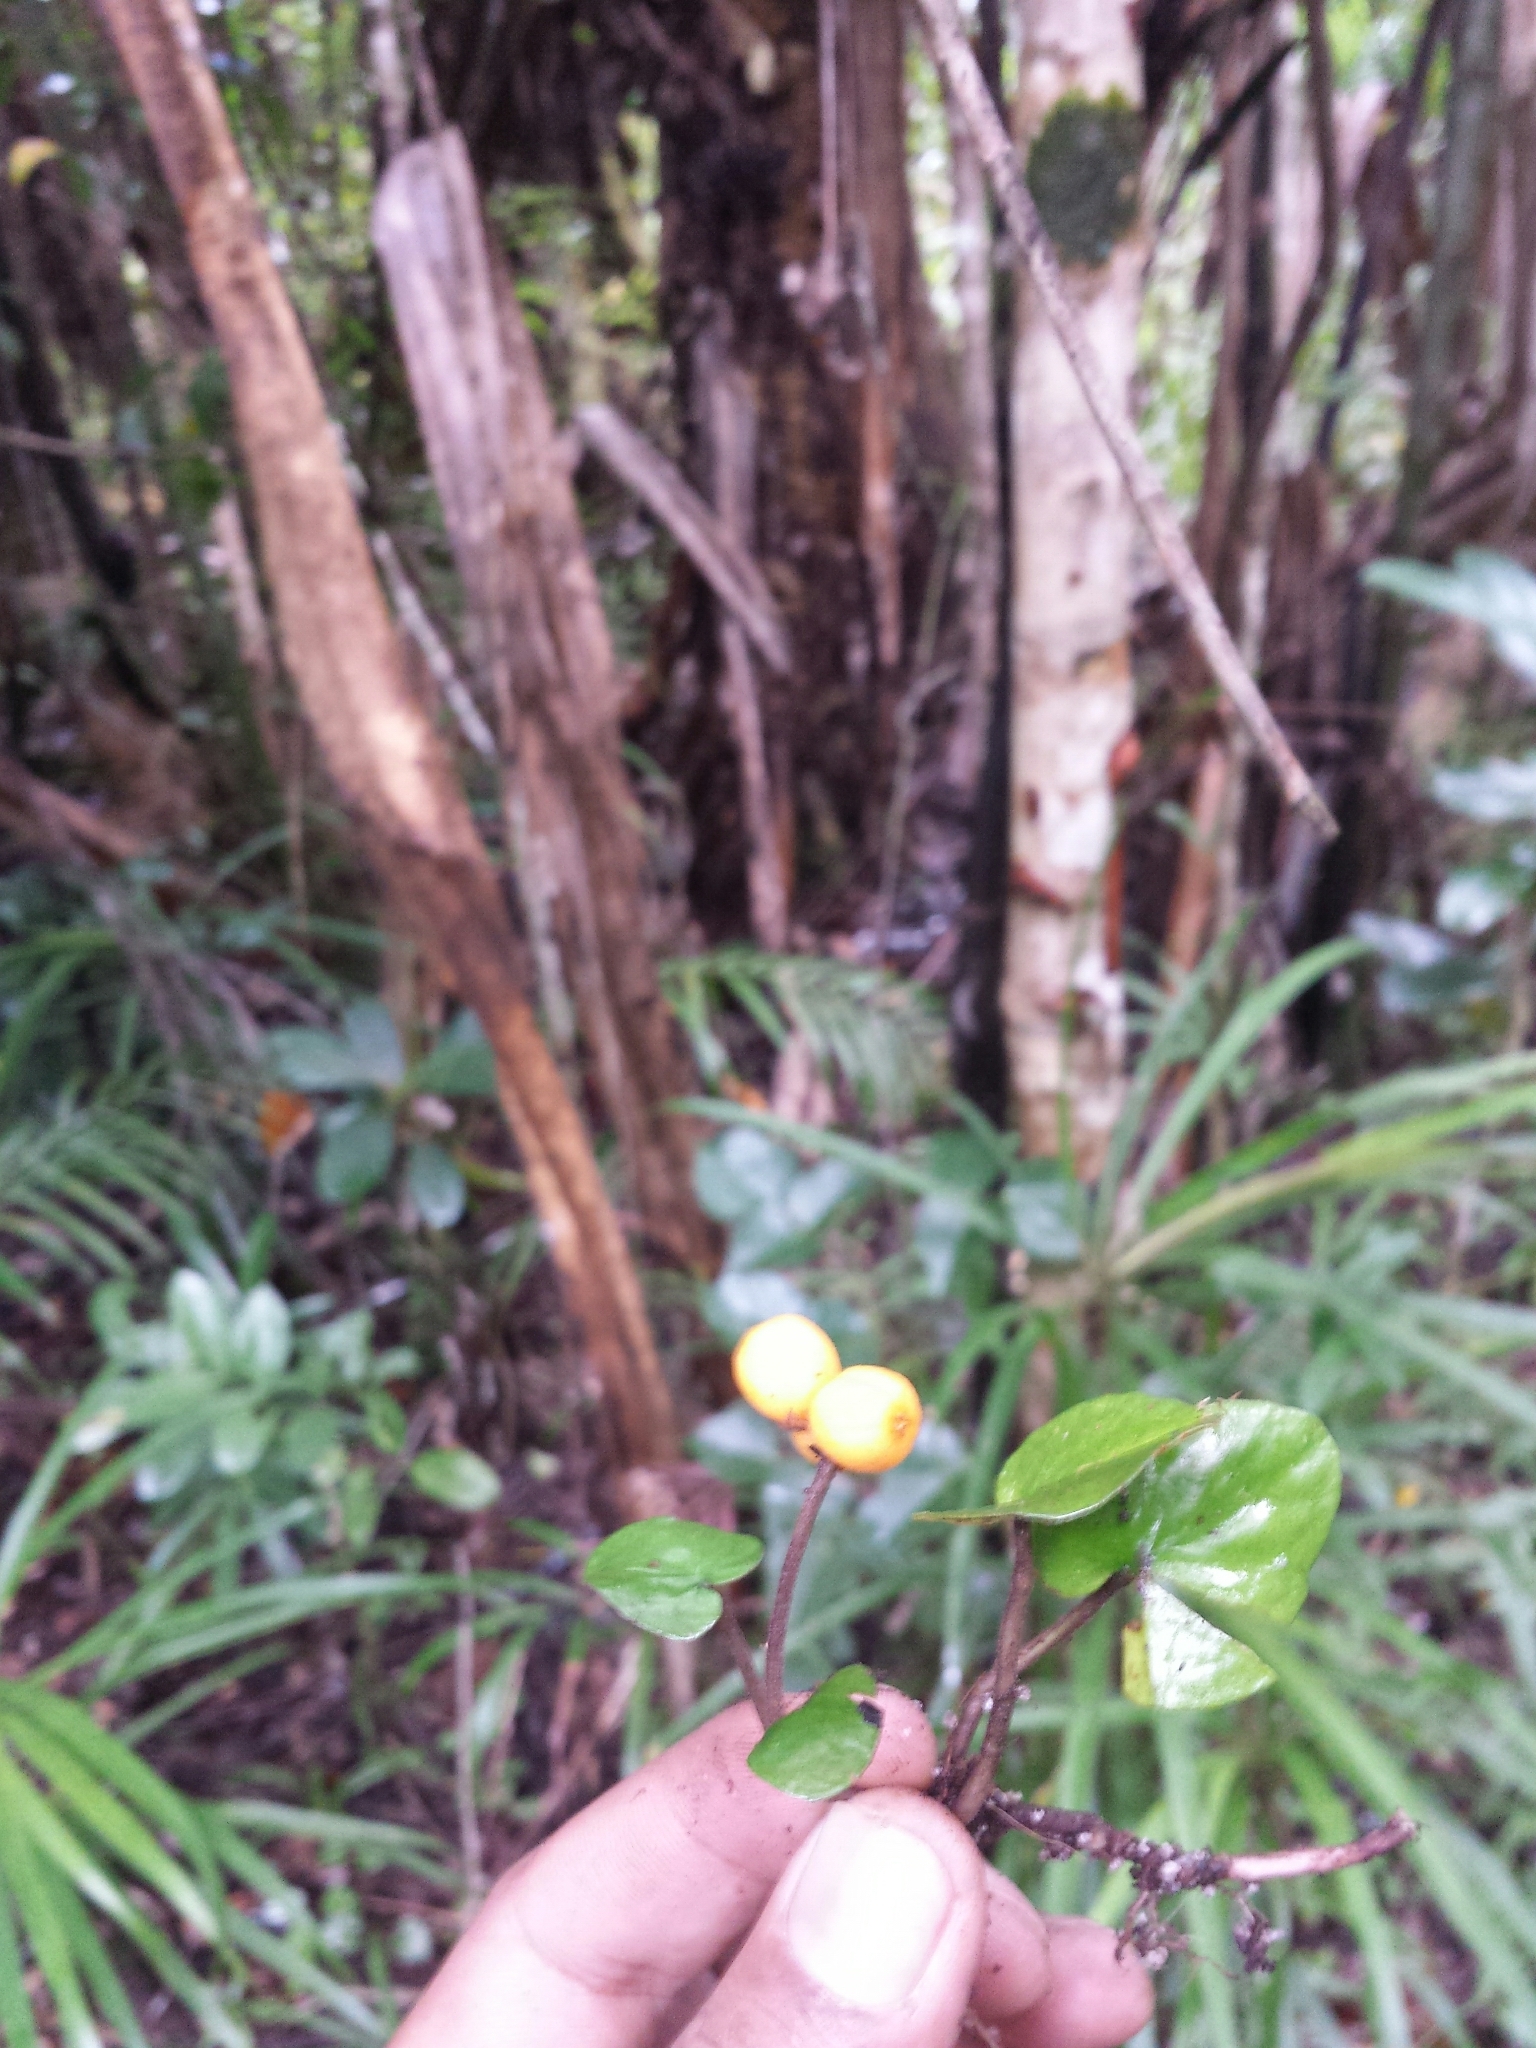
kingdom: Plantae
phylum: Tracheophyta
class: Magnoliopsida
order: Gentianales
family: Rubiaceae
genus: Puffia
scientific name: Puffia gerrardii
